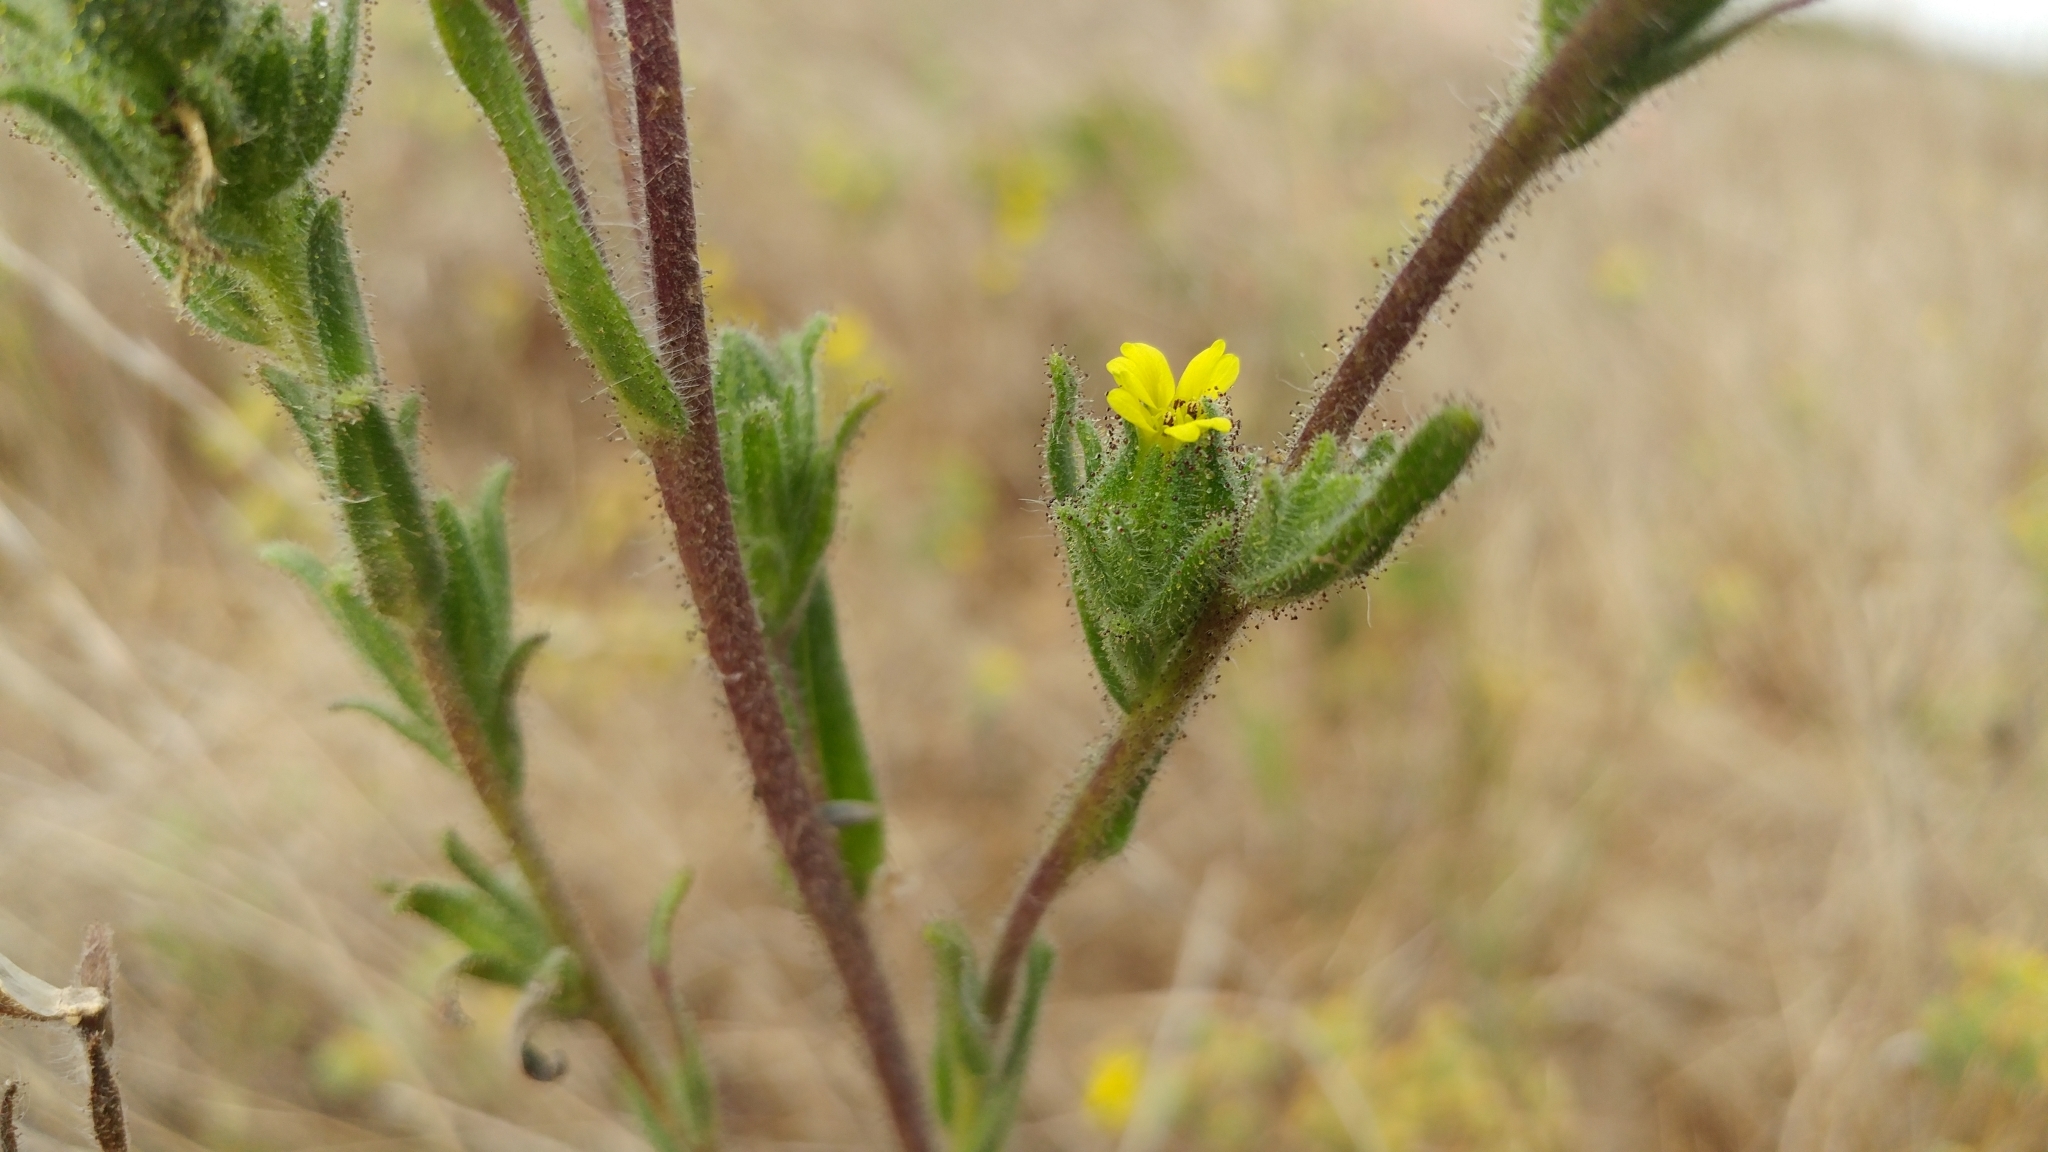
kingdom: Plantae
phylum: Tracheophyta
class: Magnoliopsida
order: Asterales
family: Asteraceae
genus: Madia
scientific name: Madia gracilis
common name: Grassy tarweed
